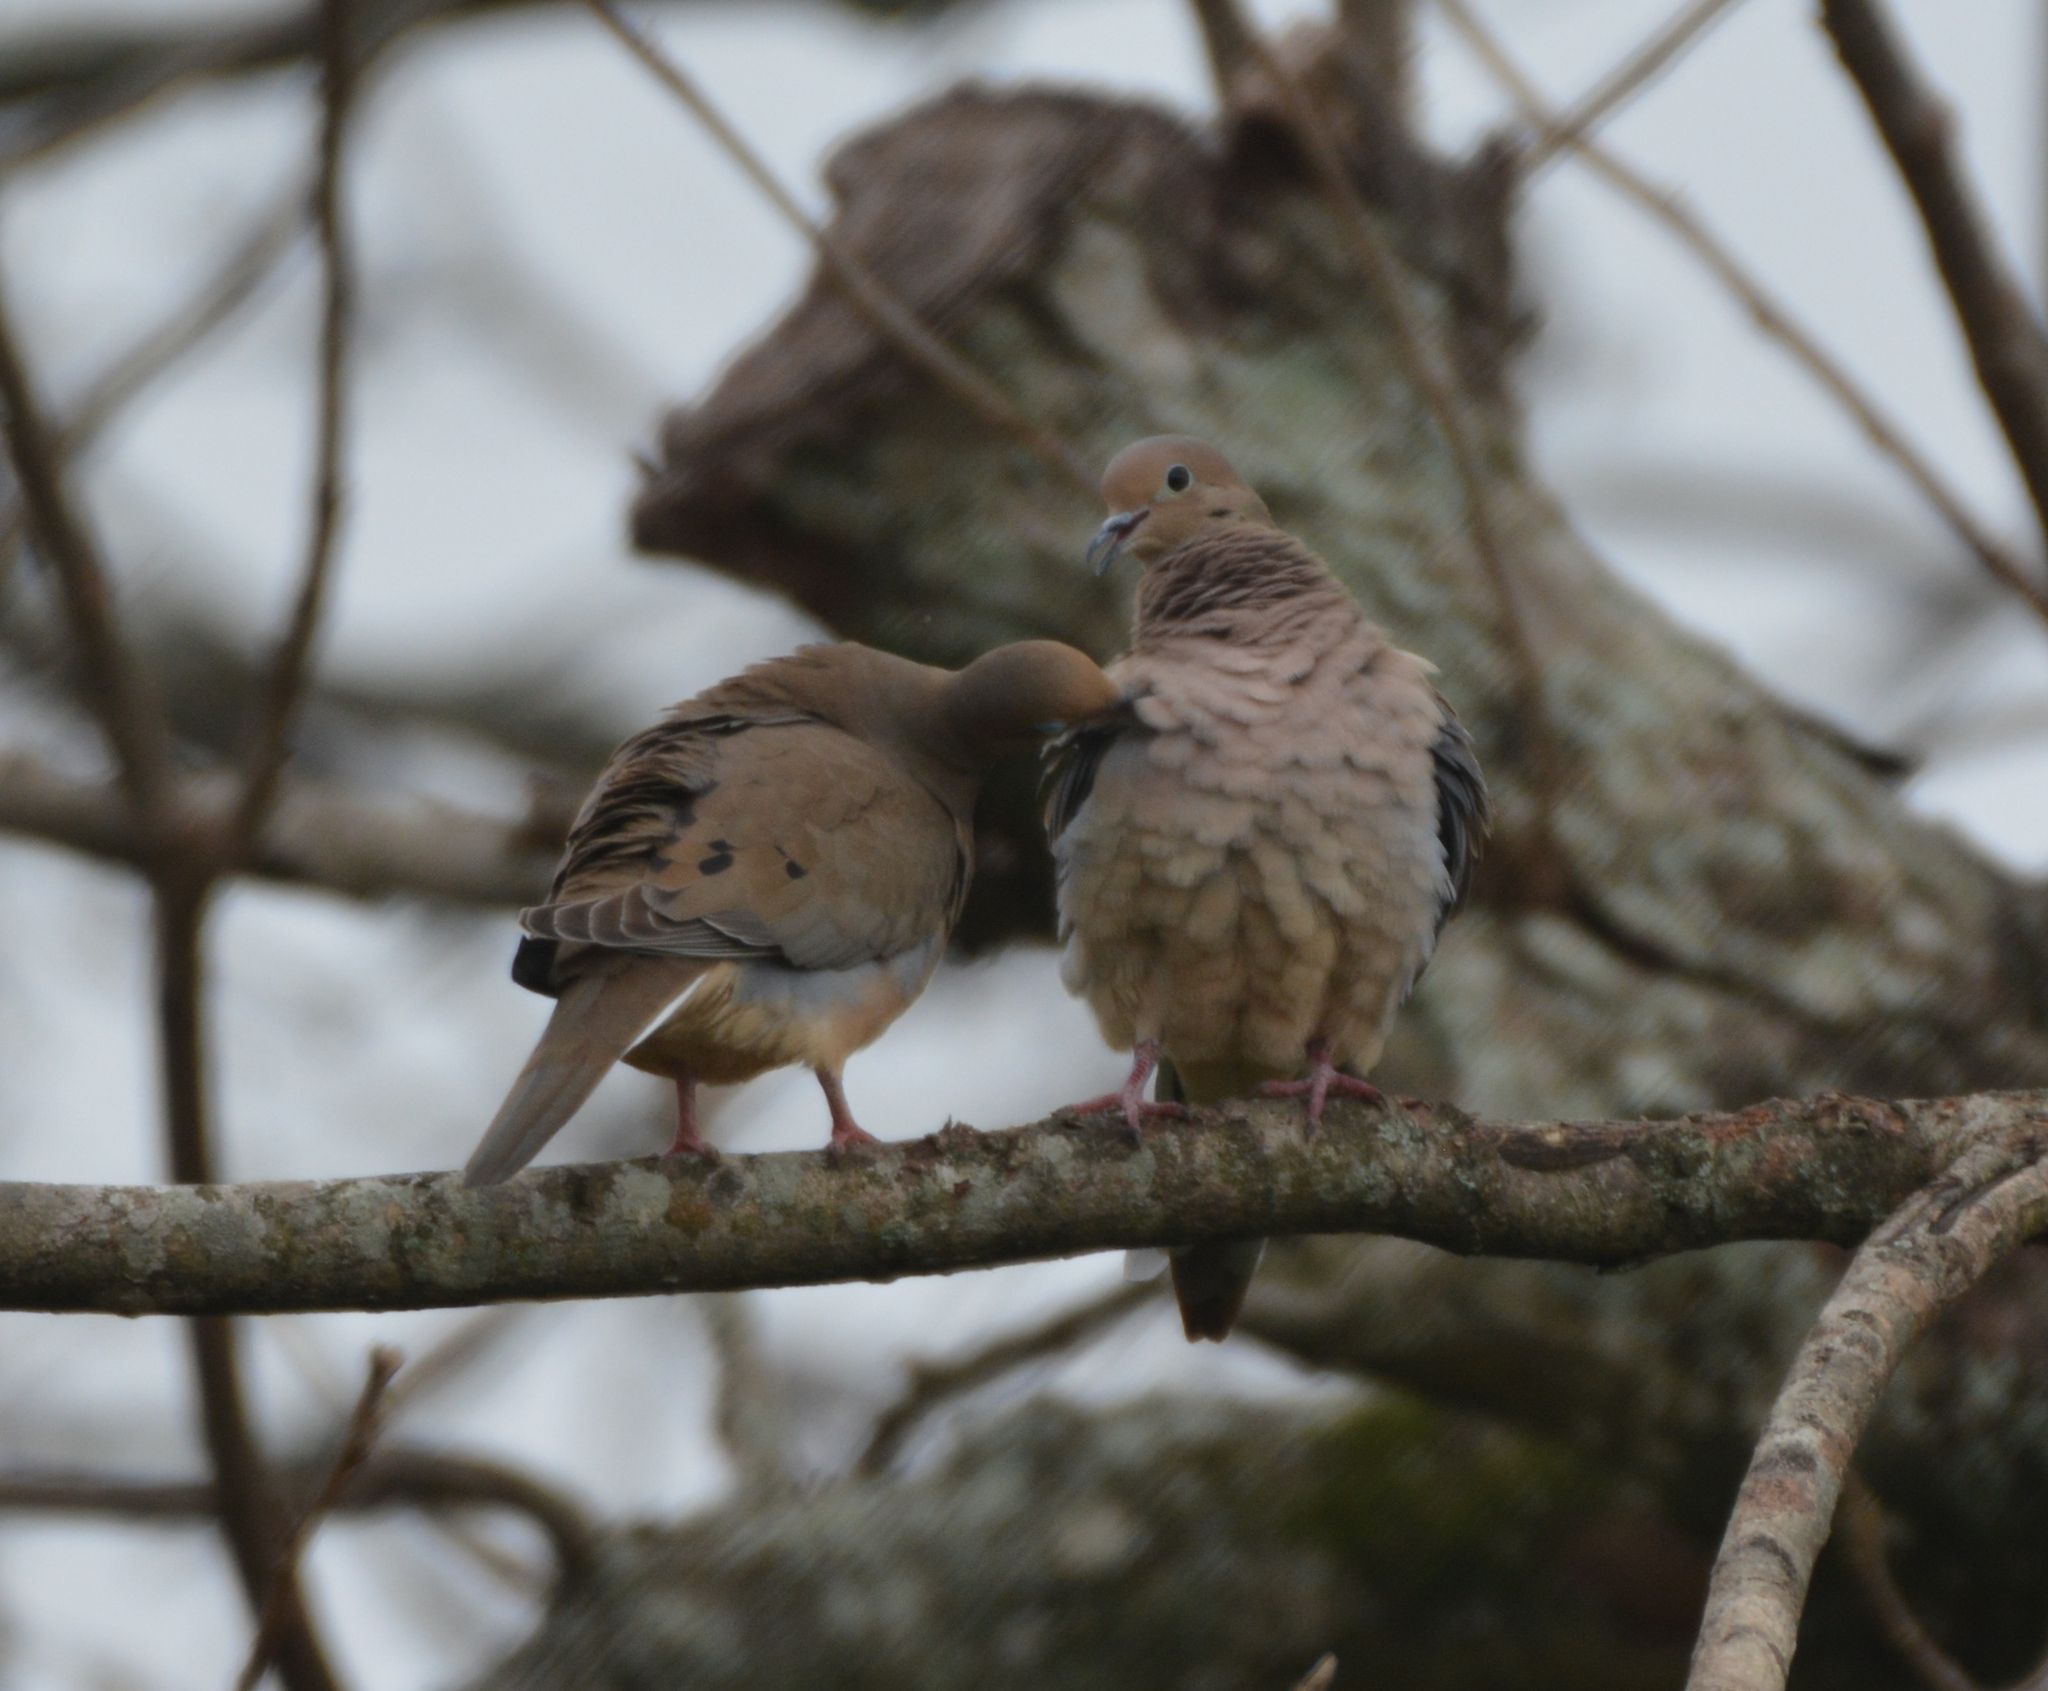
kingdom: Animalia
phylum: Chordata
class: Aves
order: Columbiformes
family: Columbidae
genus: Zenaida
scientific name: Zenaida macroura
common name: Mourning dove
